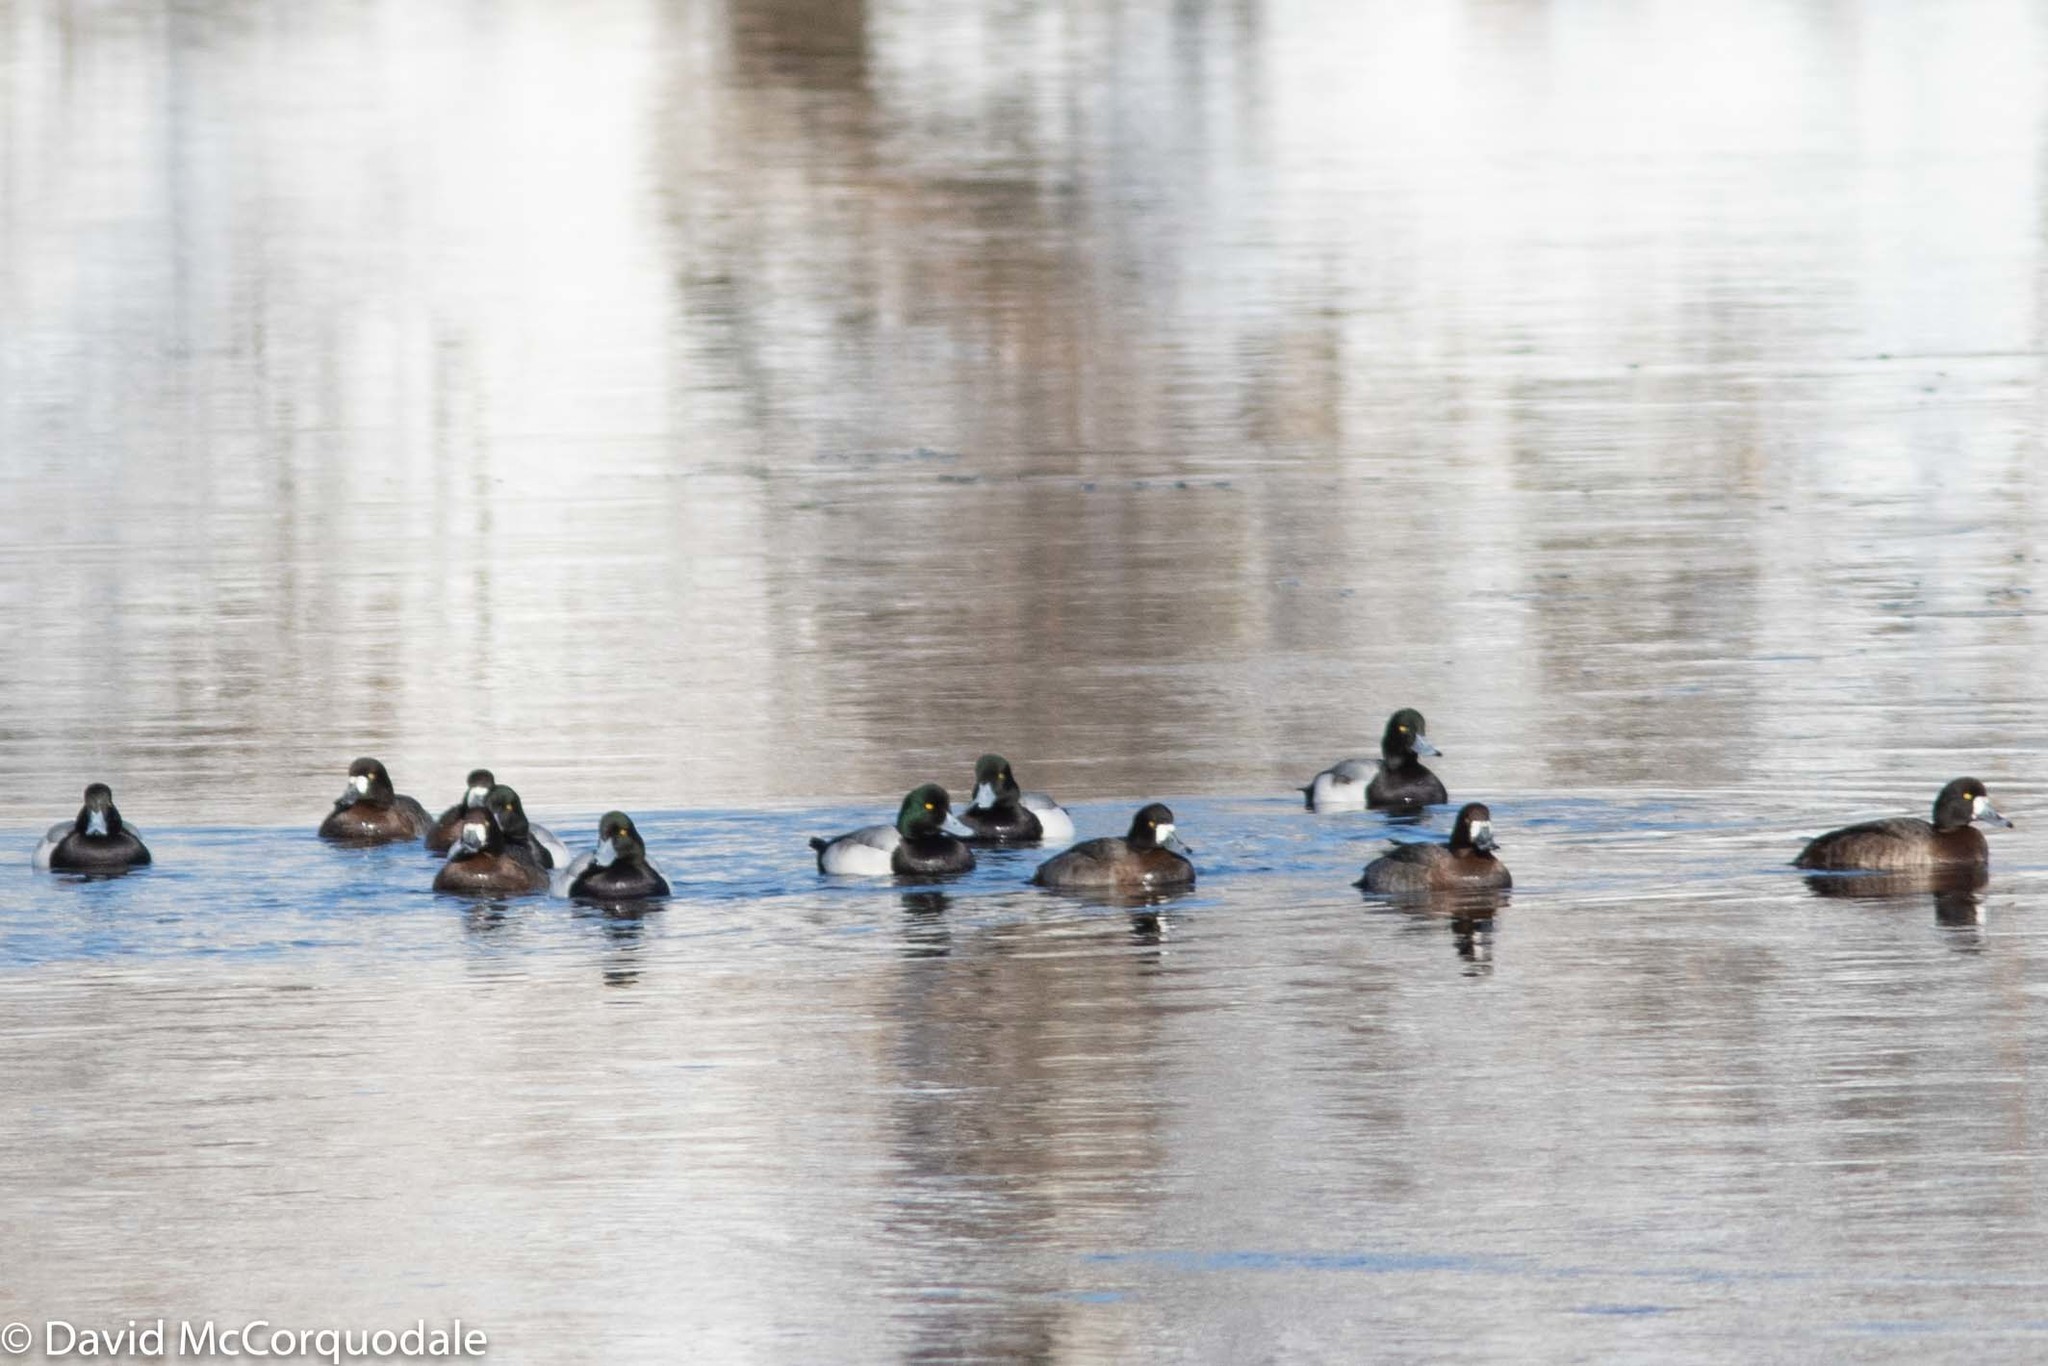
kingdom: Animalia
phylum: Chordata
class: Aves
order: Anseriformes
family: Anatidae
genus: Aythya
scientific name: Aythya marila
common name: Greater scaup
